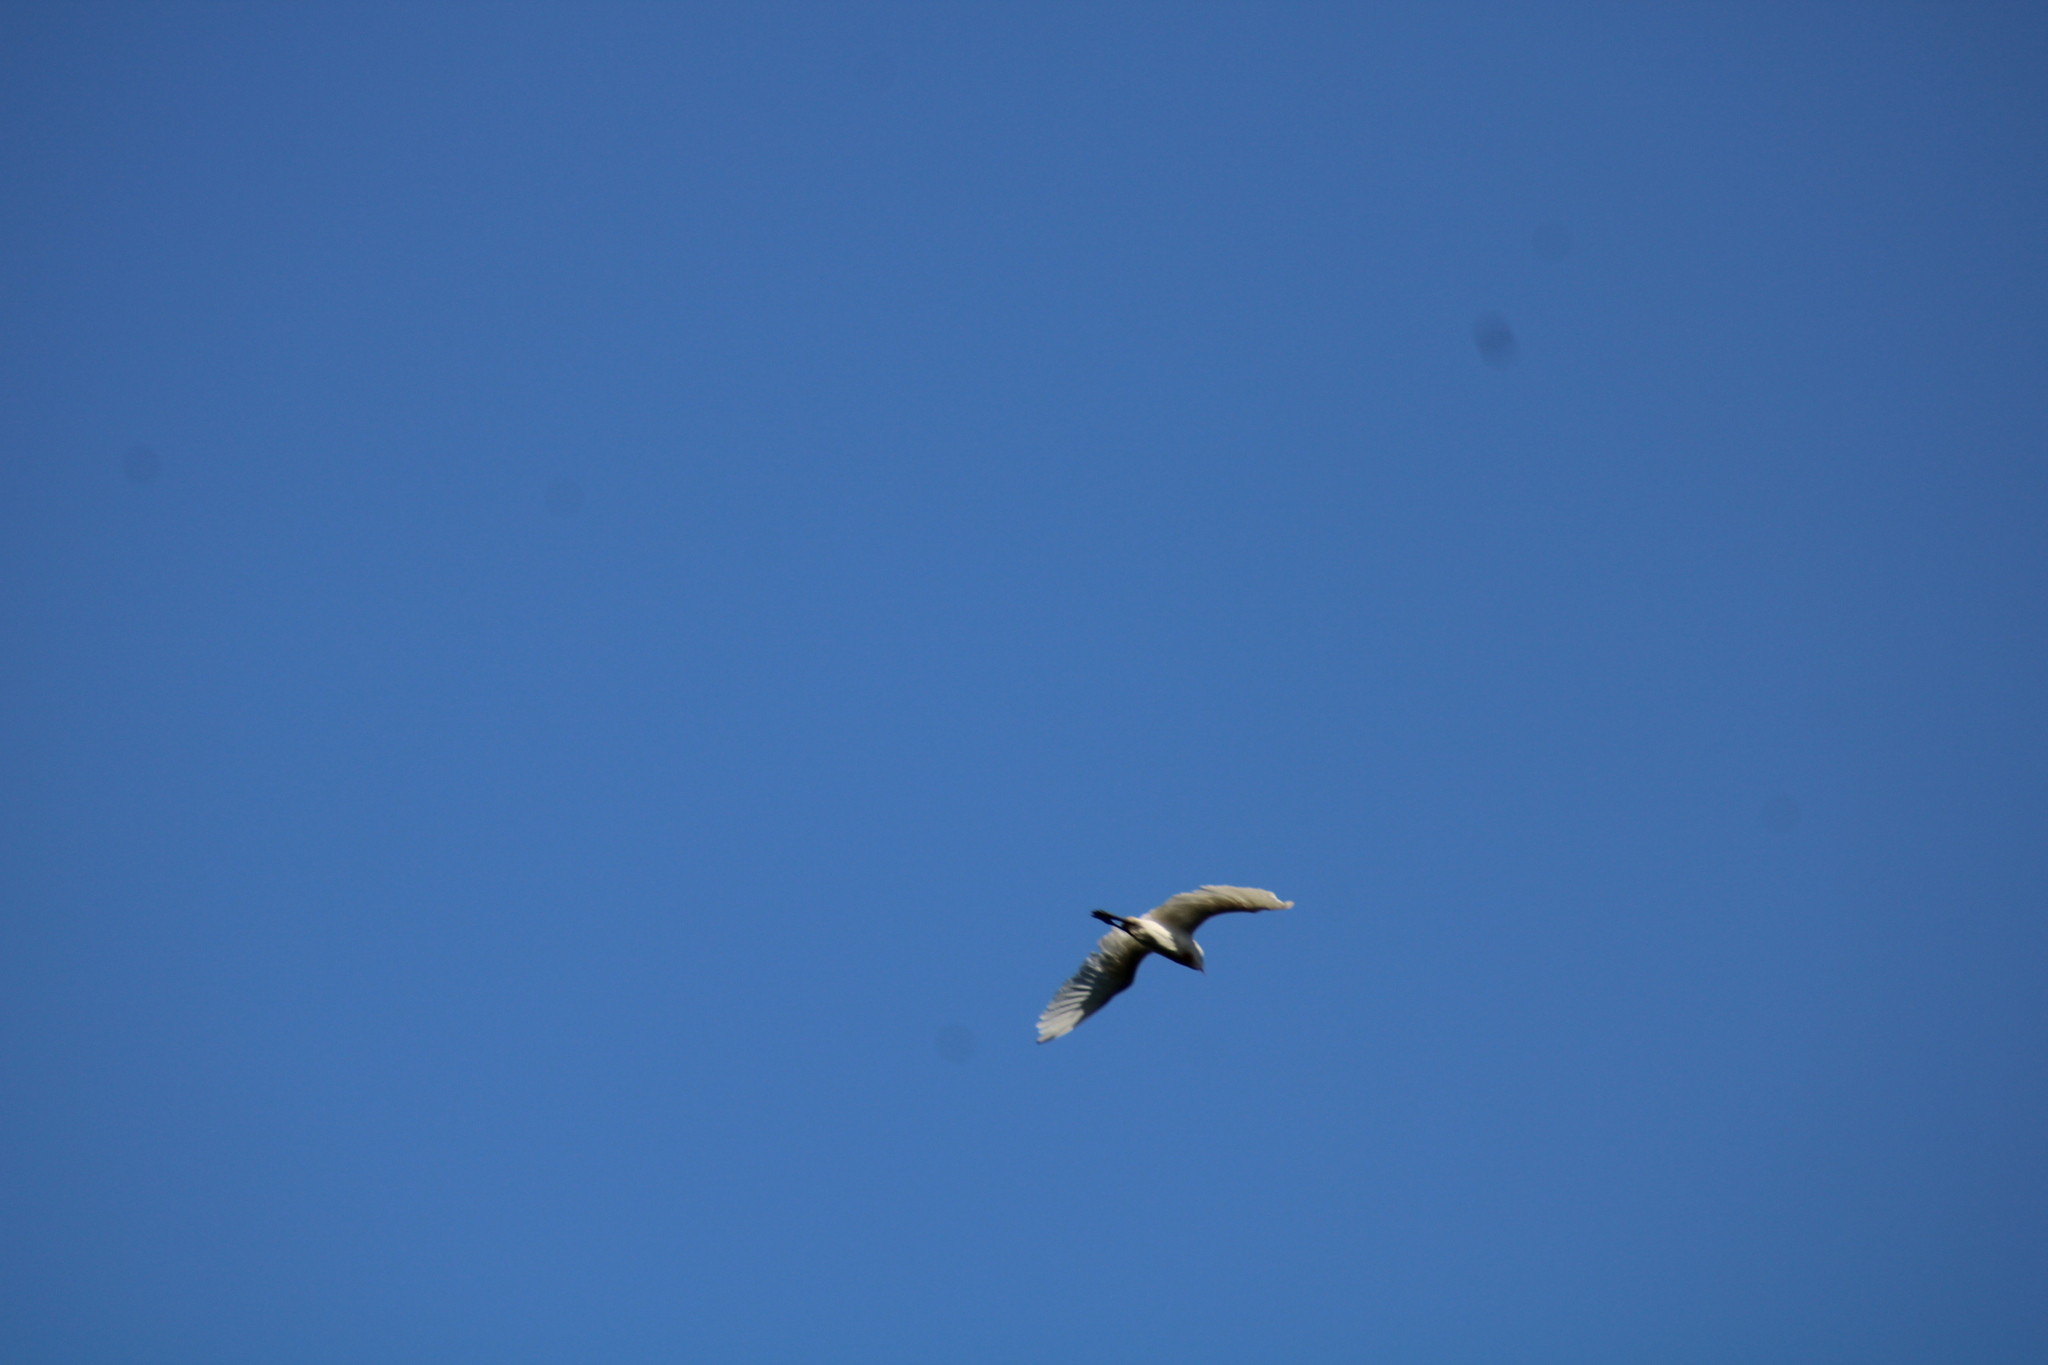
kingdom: Animalia
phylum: Chordata
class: Aves
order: Pelecaniformes
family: Ardeidae
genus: Bubulcus
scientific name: Bubulcus ibis
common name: Cattle egret
